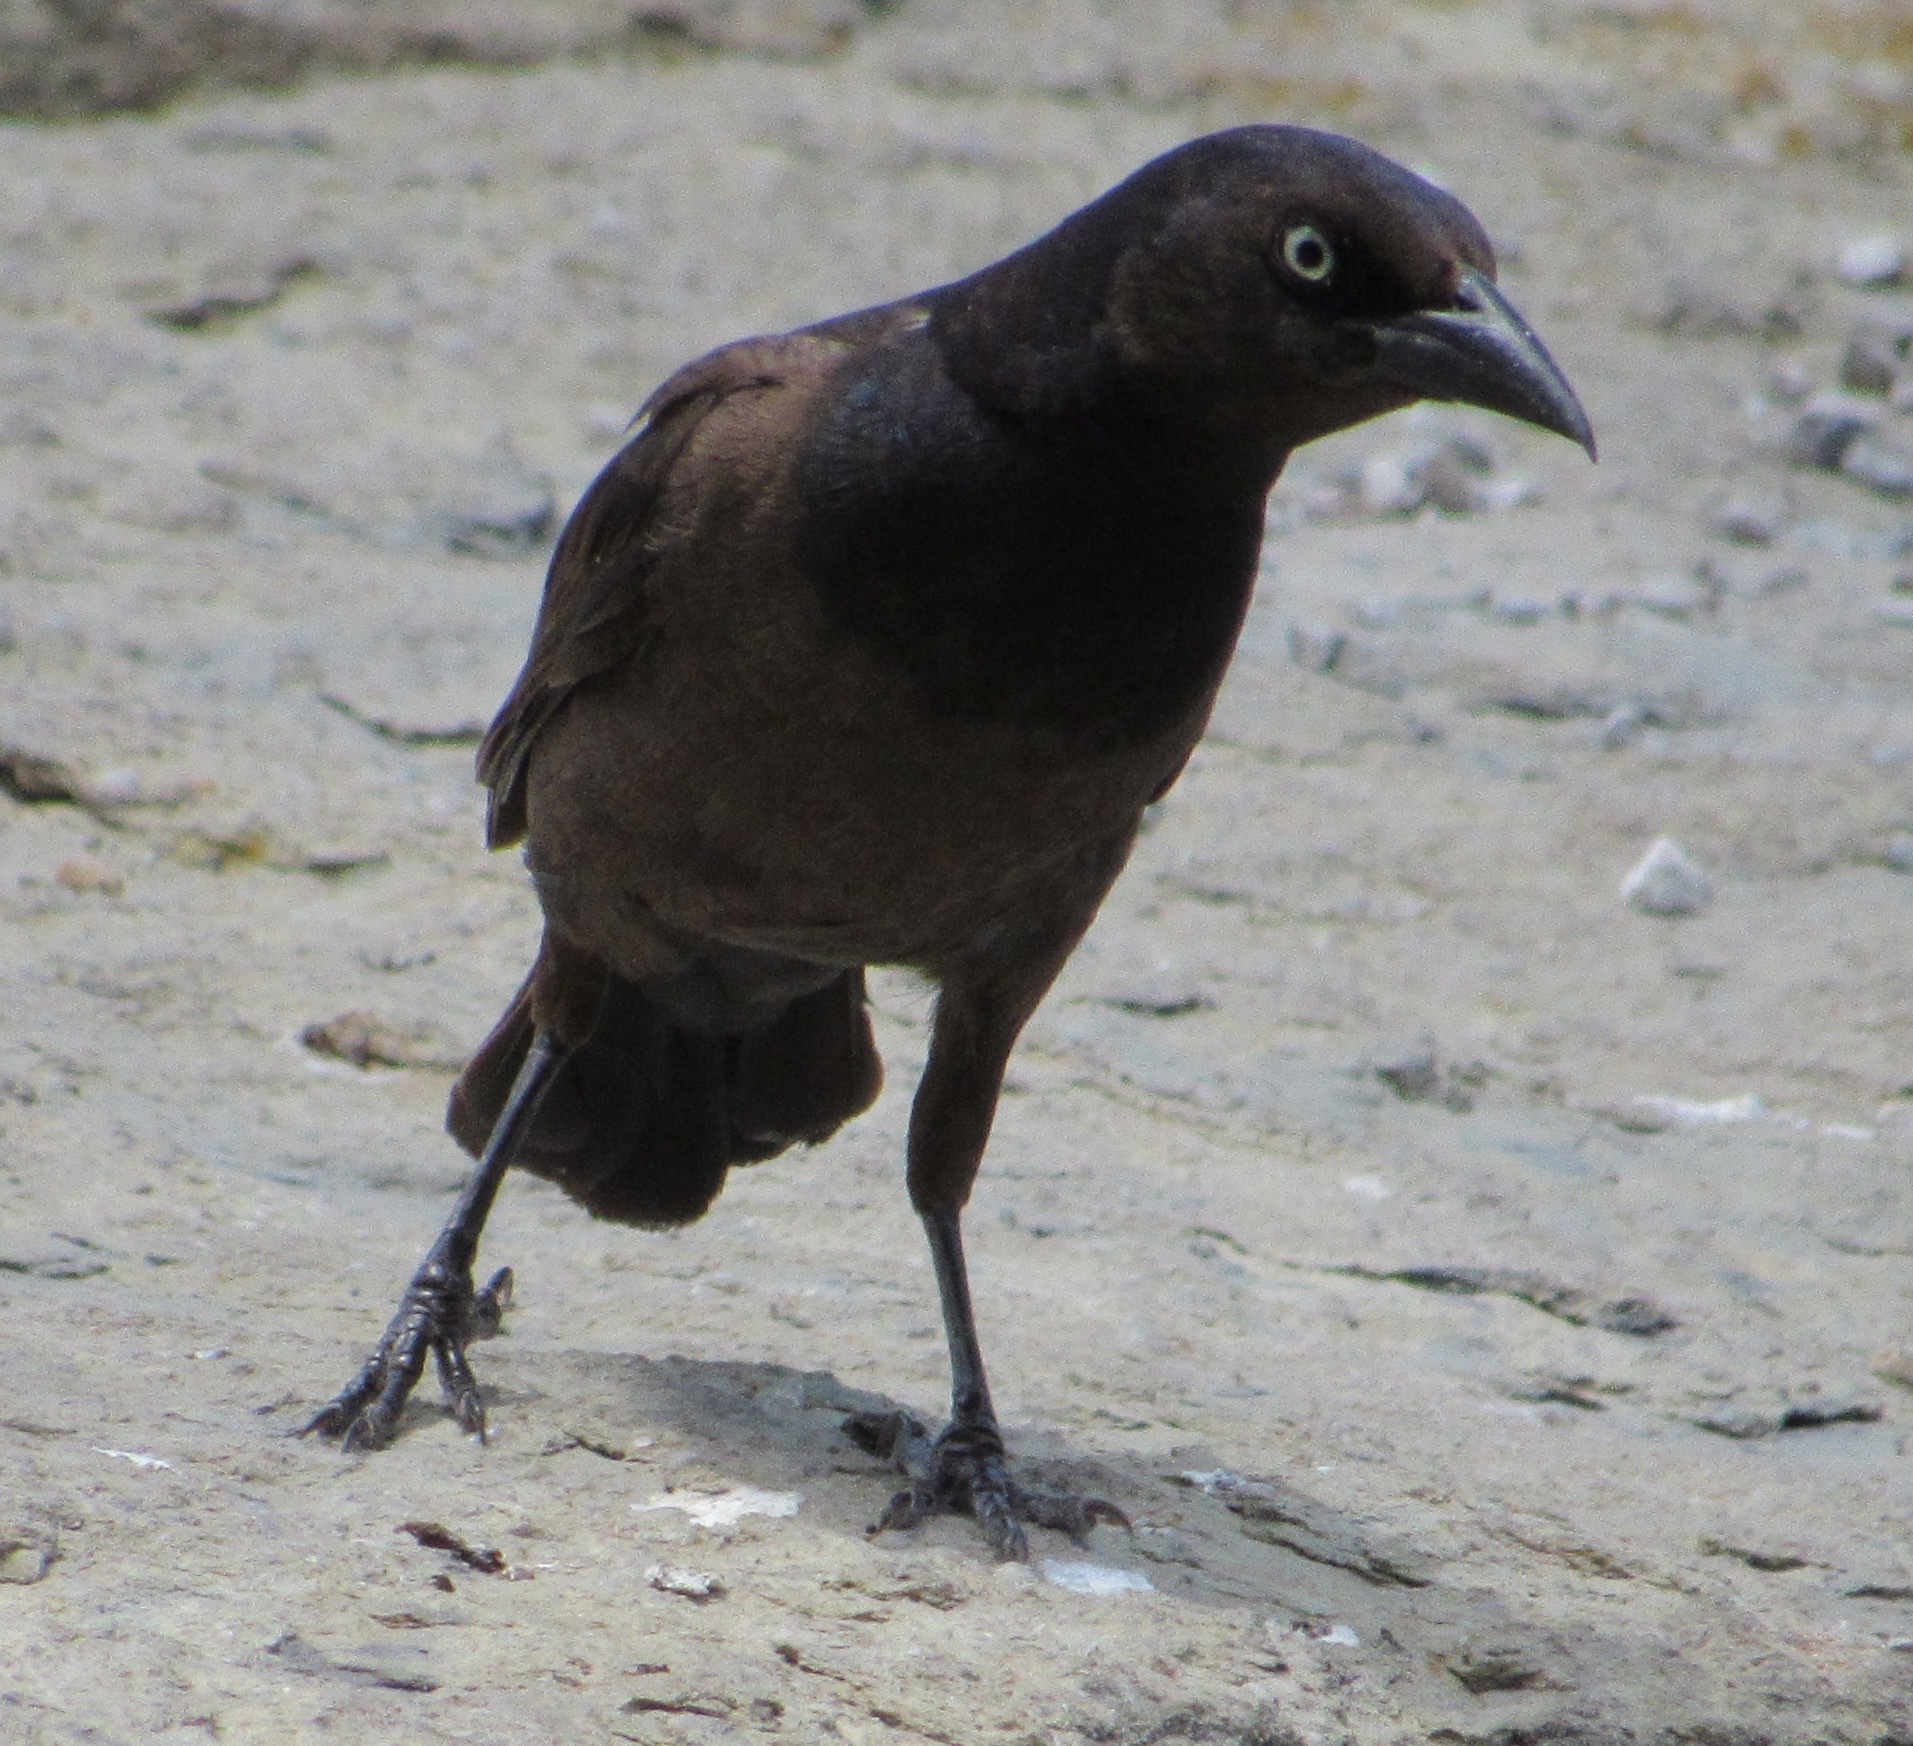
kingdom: Animalia
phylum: Chordata
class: Aves
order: Passeriformes
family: Icteridae
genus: Quiscalus
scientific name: Quiscalus quiscula
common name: Common grackle
